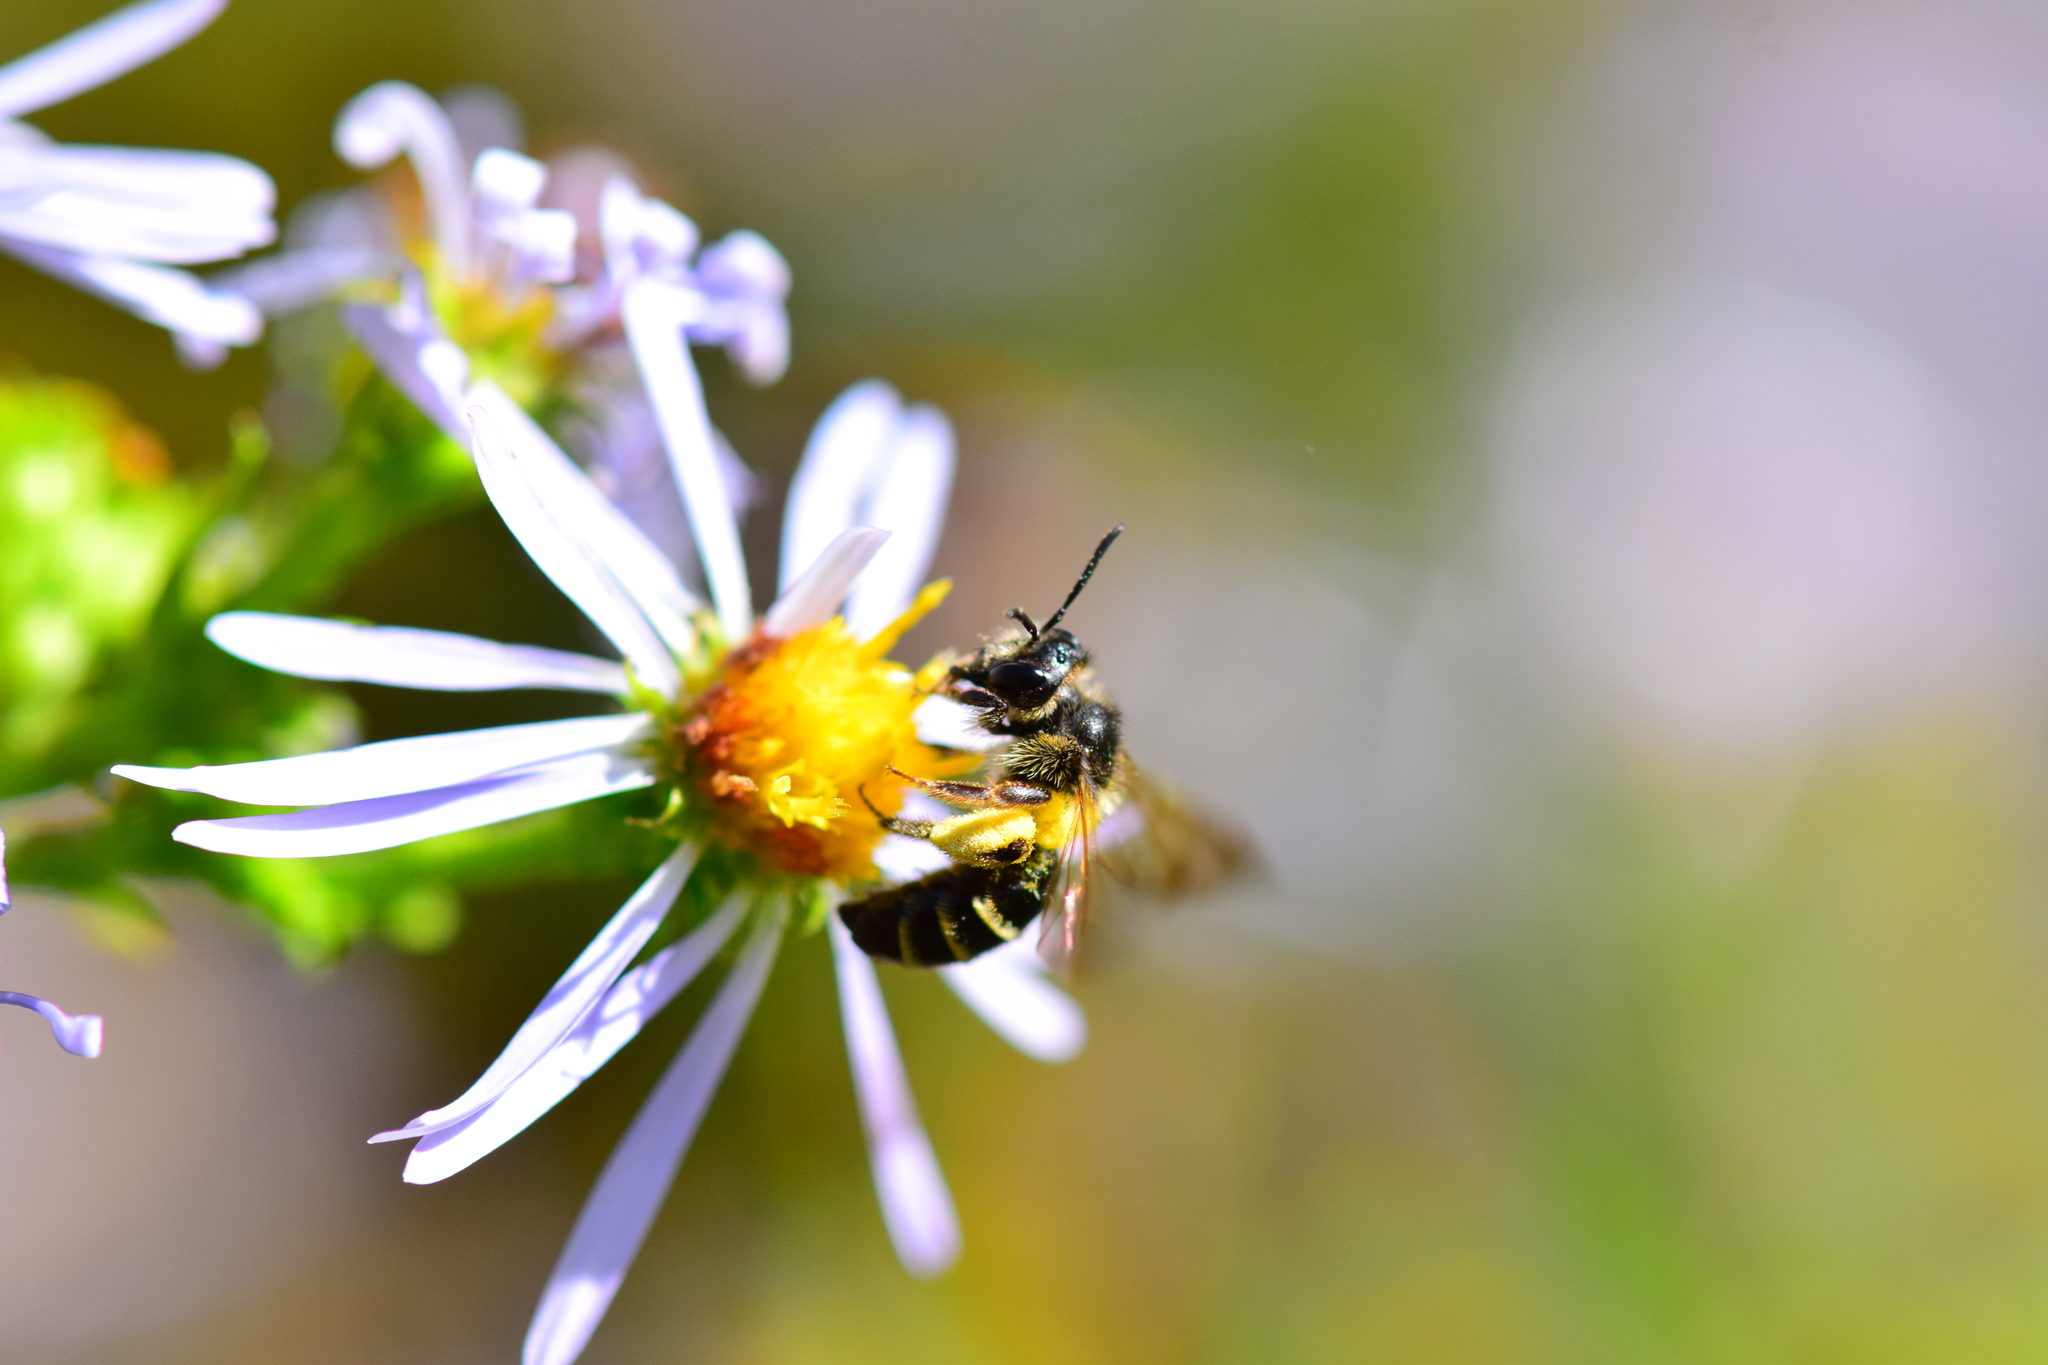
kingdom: Animalia
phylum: Arthropoda
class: Insecta
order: Hymenoptera
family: Andrenidae
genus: Andrena
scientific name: Andrena robervalensis
